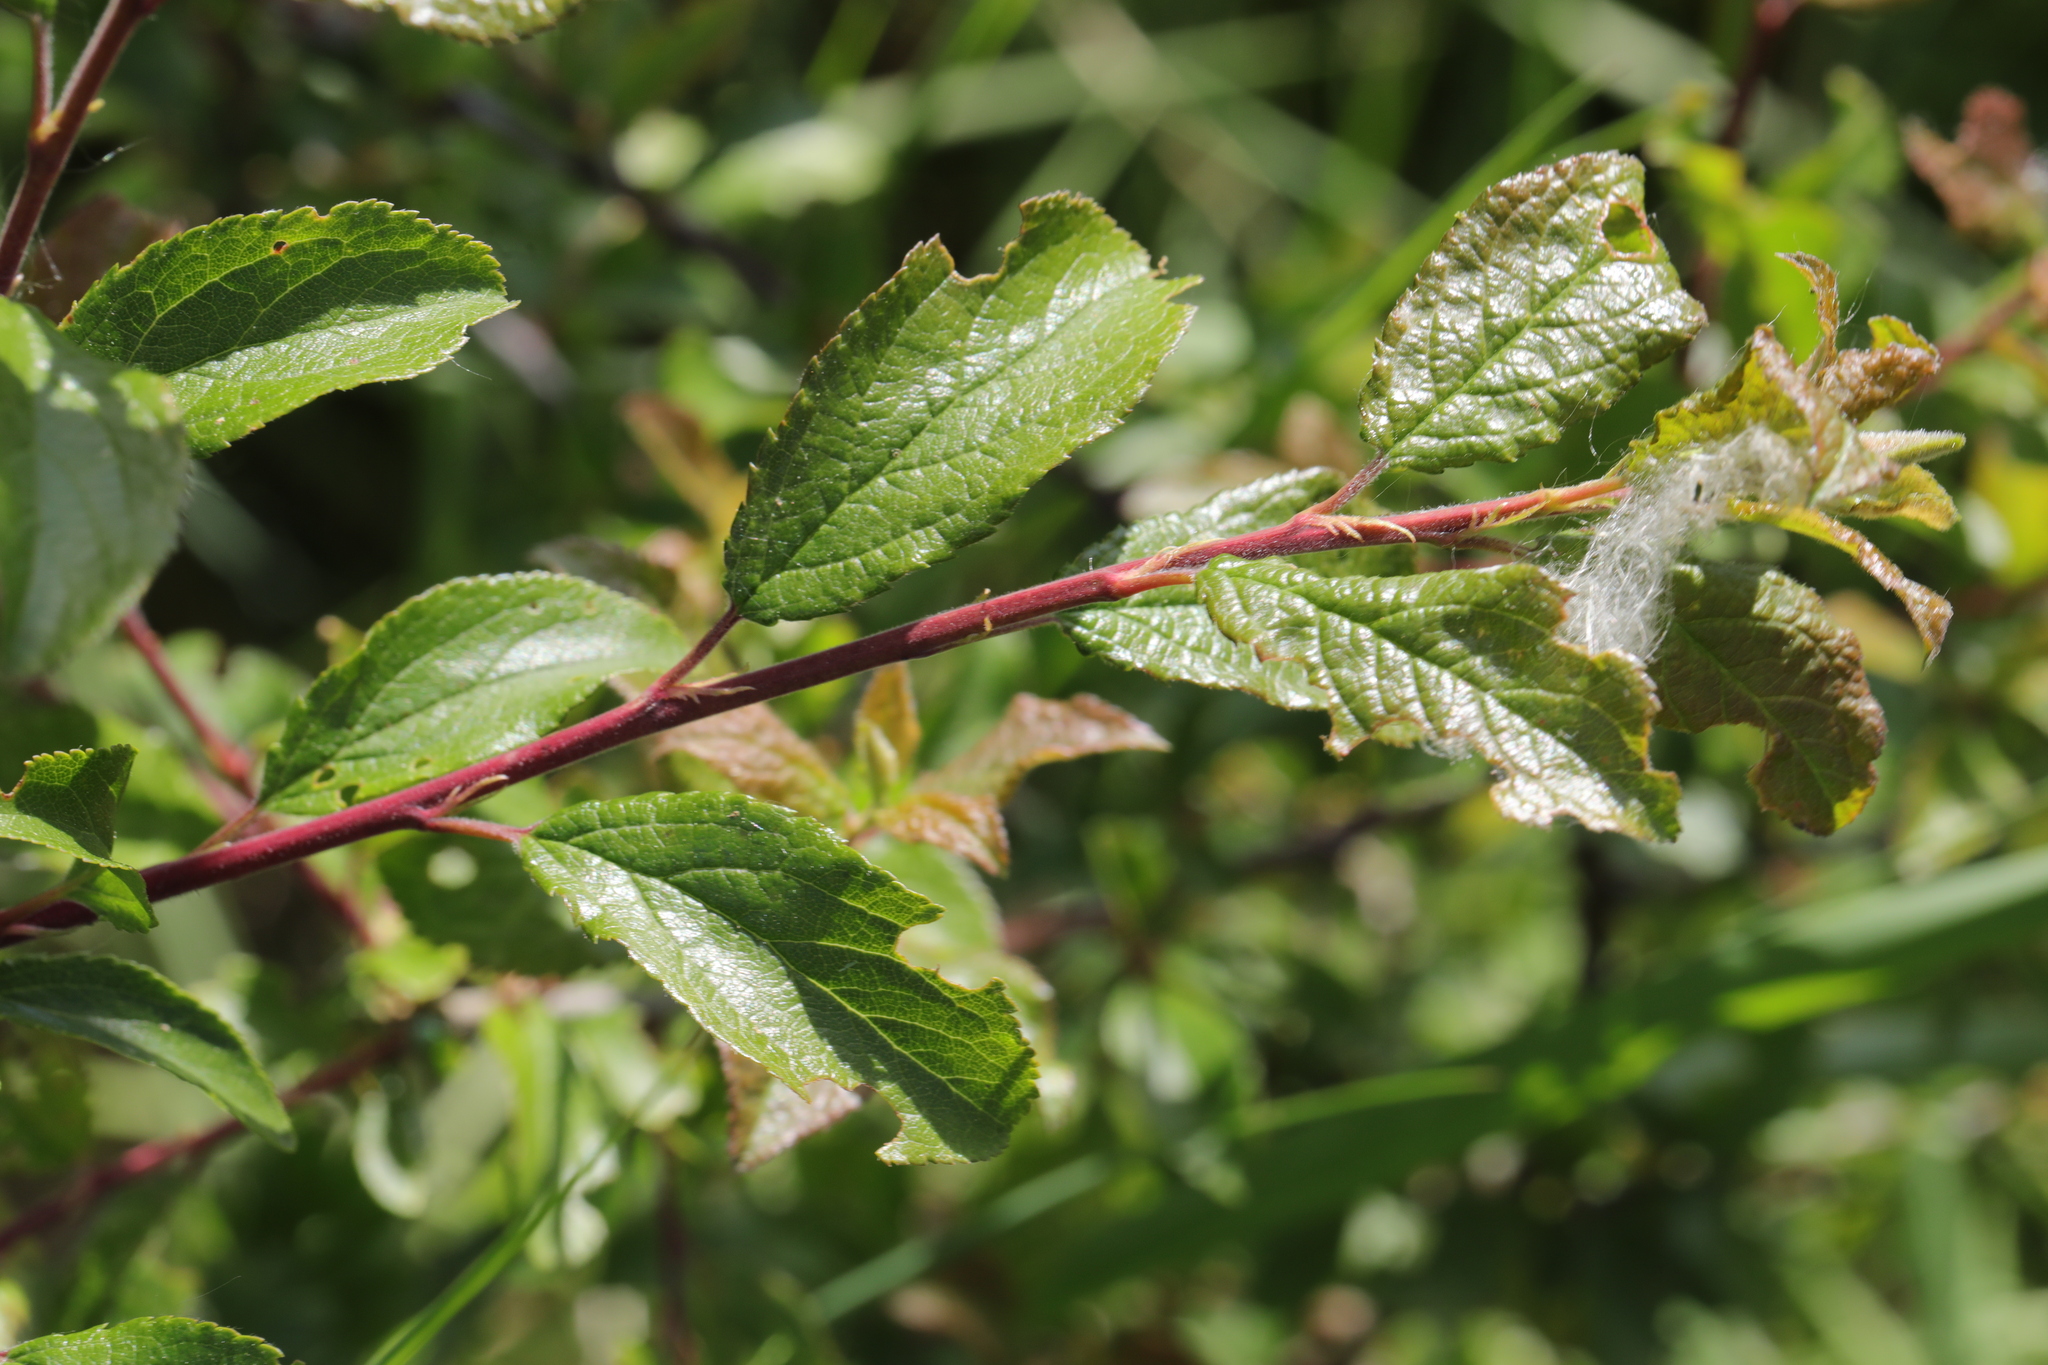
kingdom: Plantae
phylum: Tracheophyta
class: Magnoliopsida
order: Rosales
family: Rosaceae
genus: Prunus
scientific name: Prunus spinosa
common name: Blackthorn
